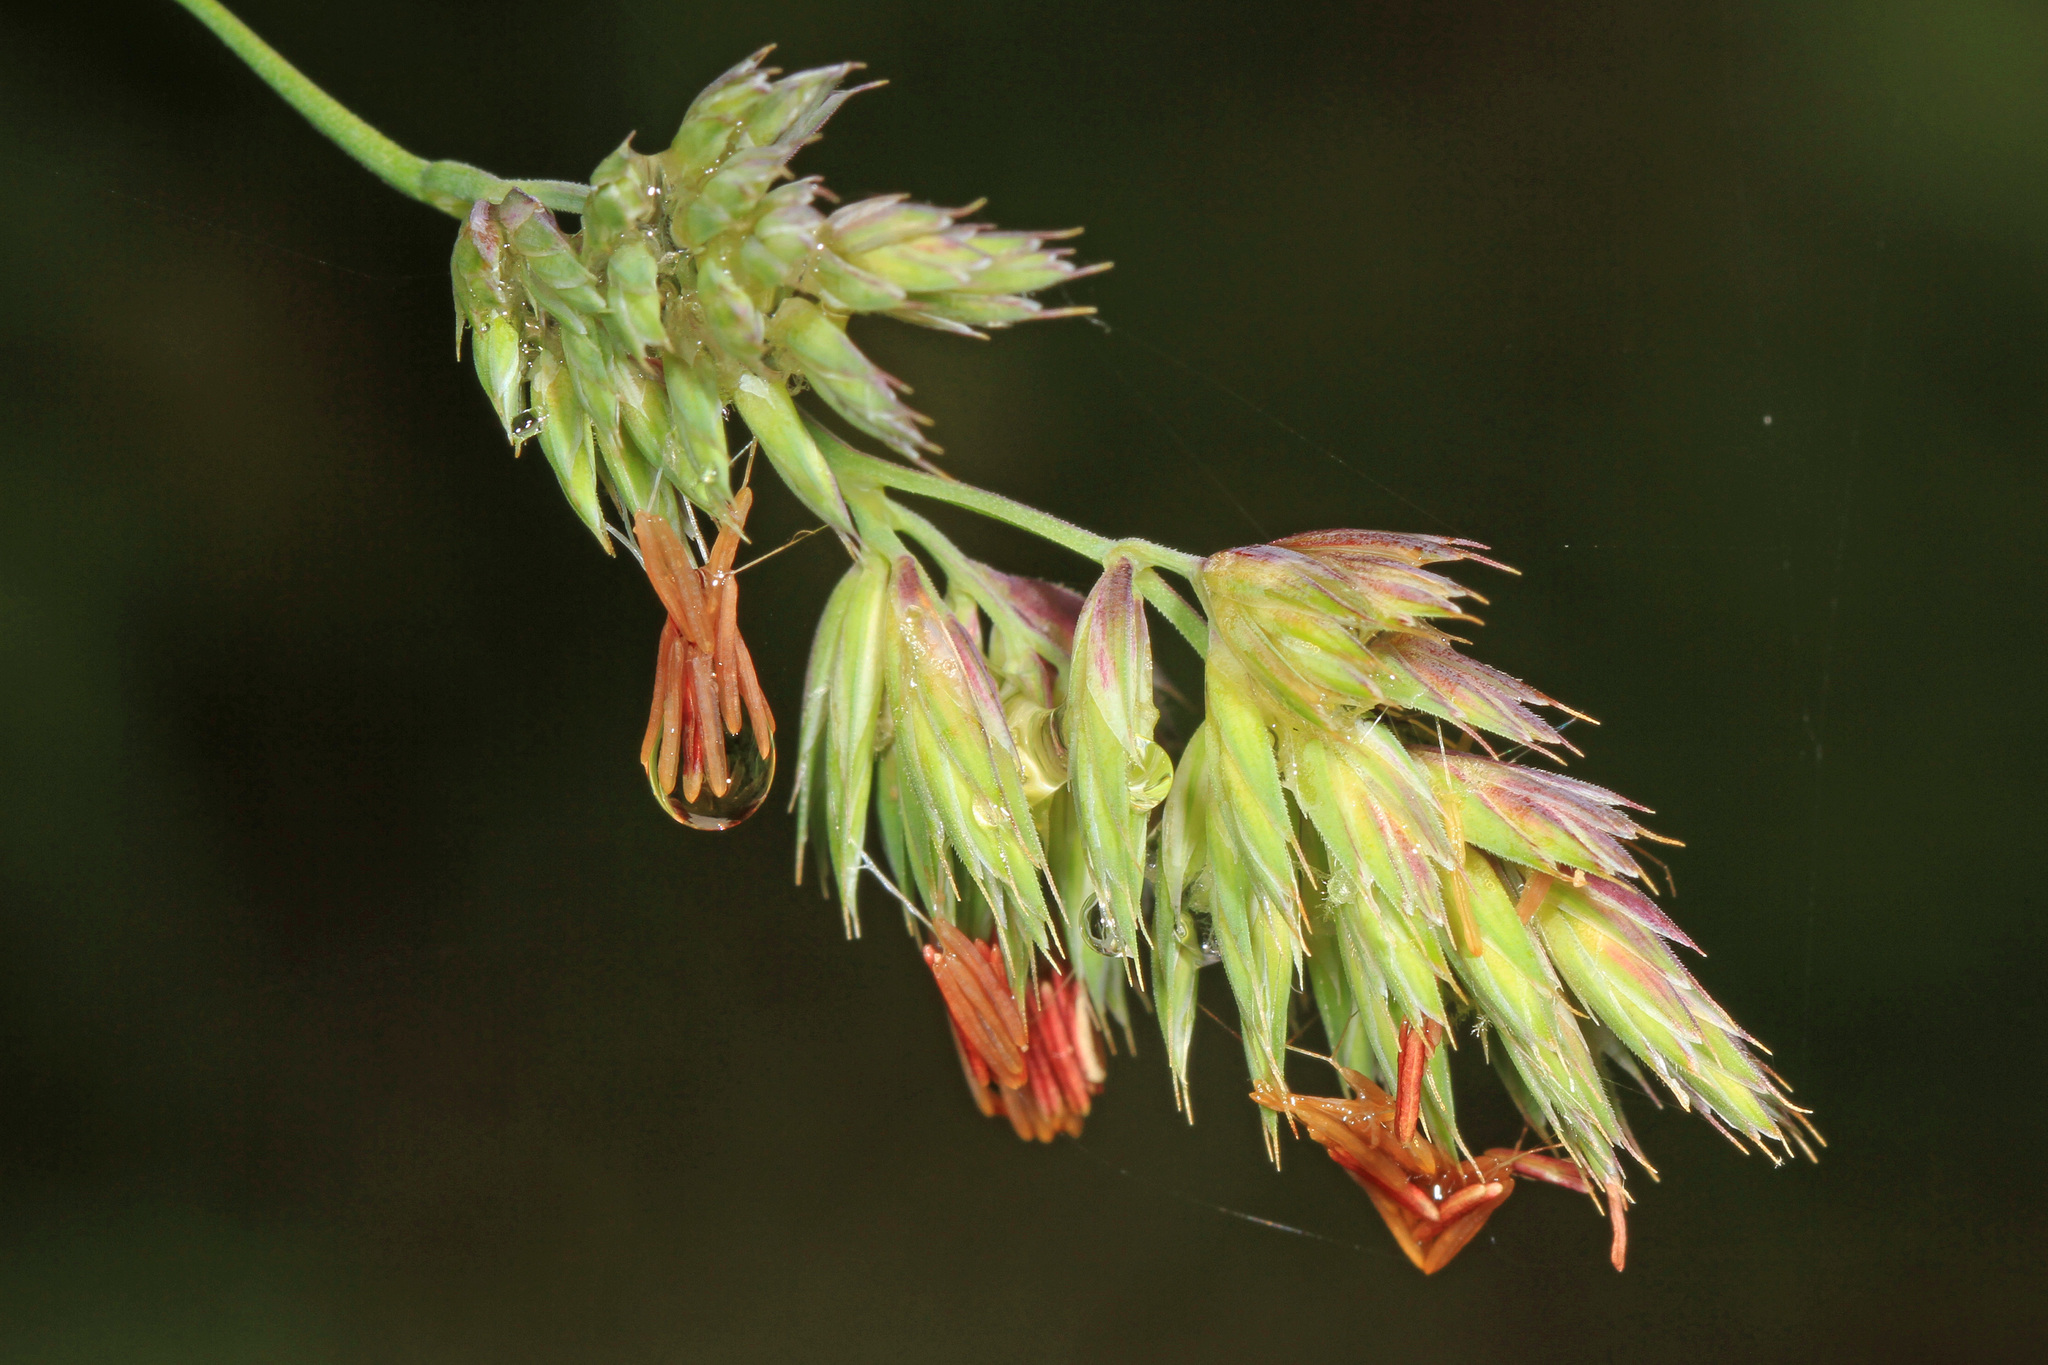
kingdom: Plantae
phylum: Tracheophyta
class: Liliopsida
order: Poales
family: Poaceae
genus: Dactylis
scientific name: Dactylis glomerata
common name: Orchardgrass
